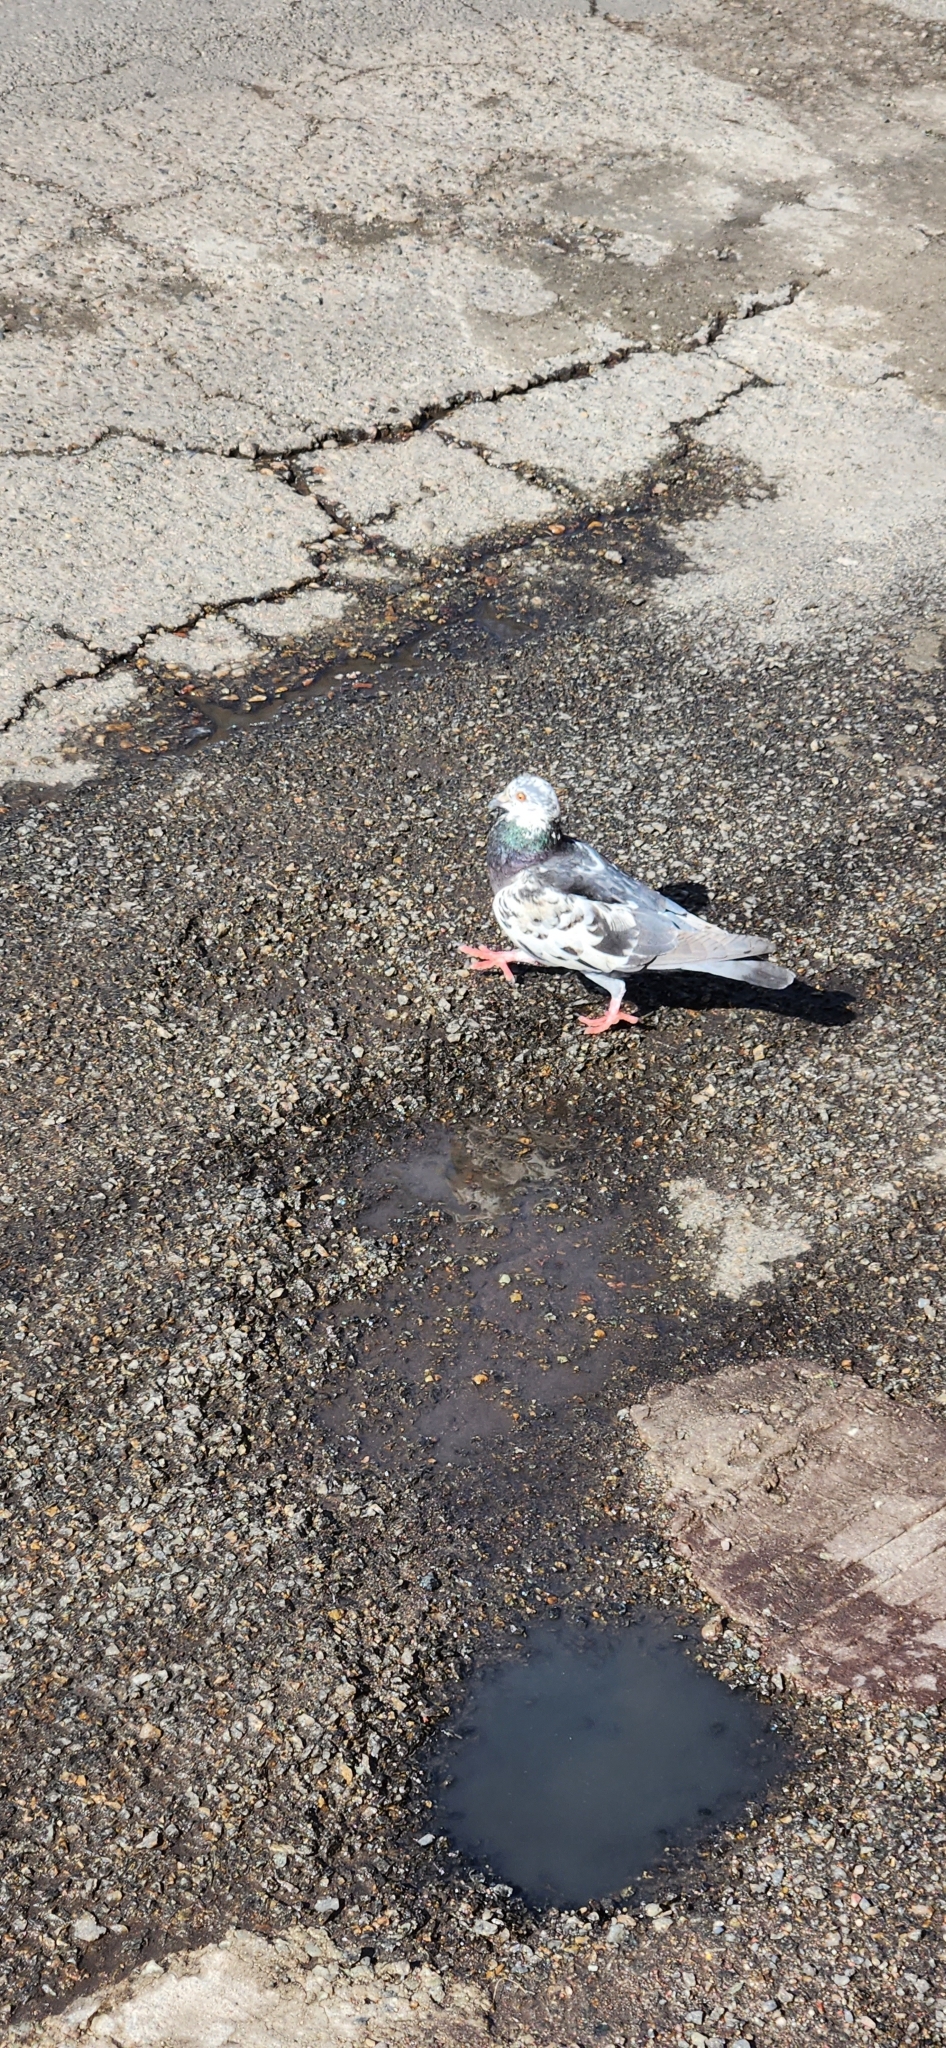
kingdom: Animalia
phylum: Chordata
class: Aves
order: Columbiformes
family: Columbidae
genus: Columba
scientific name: Columba livia
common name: Rock pigeon
